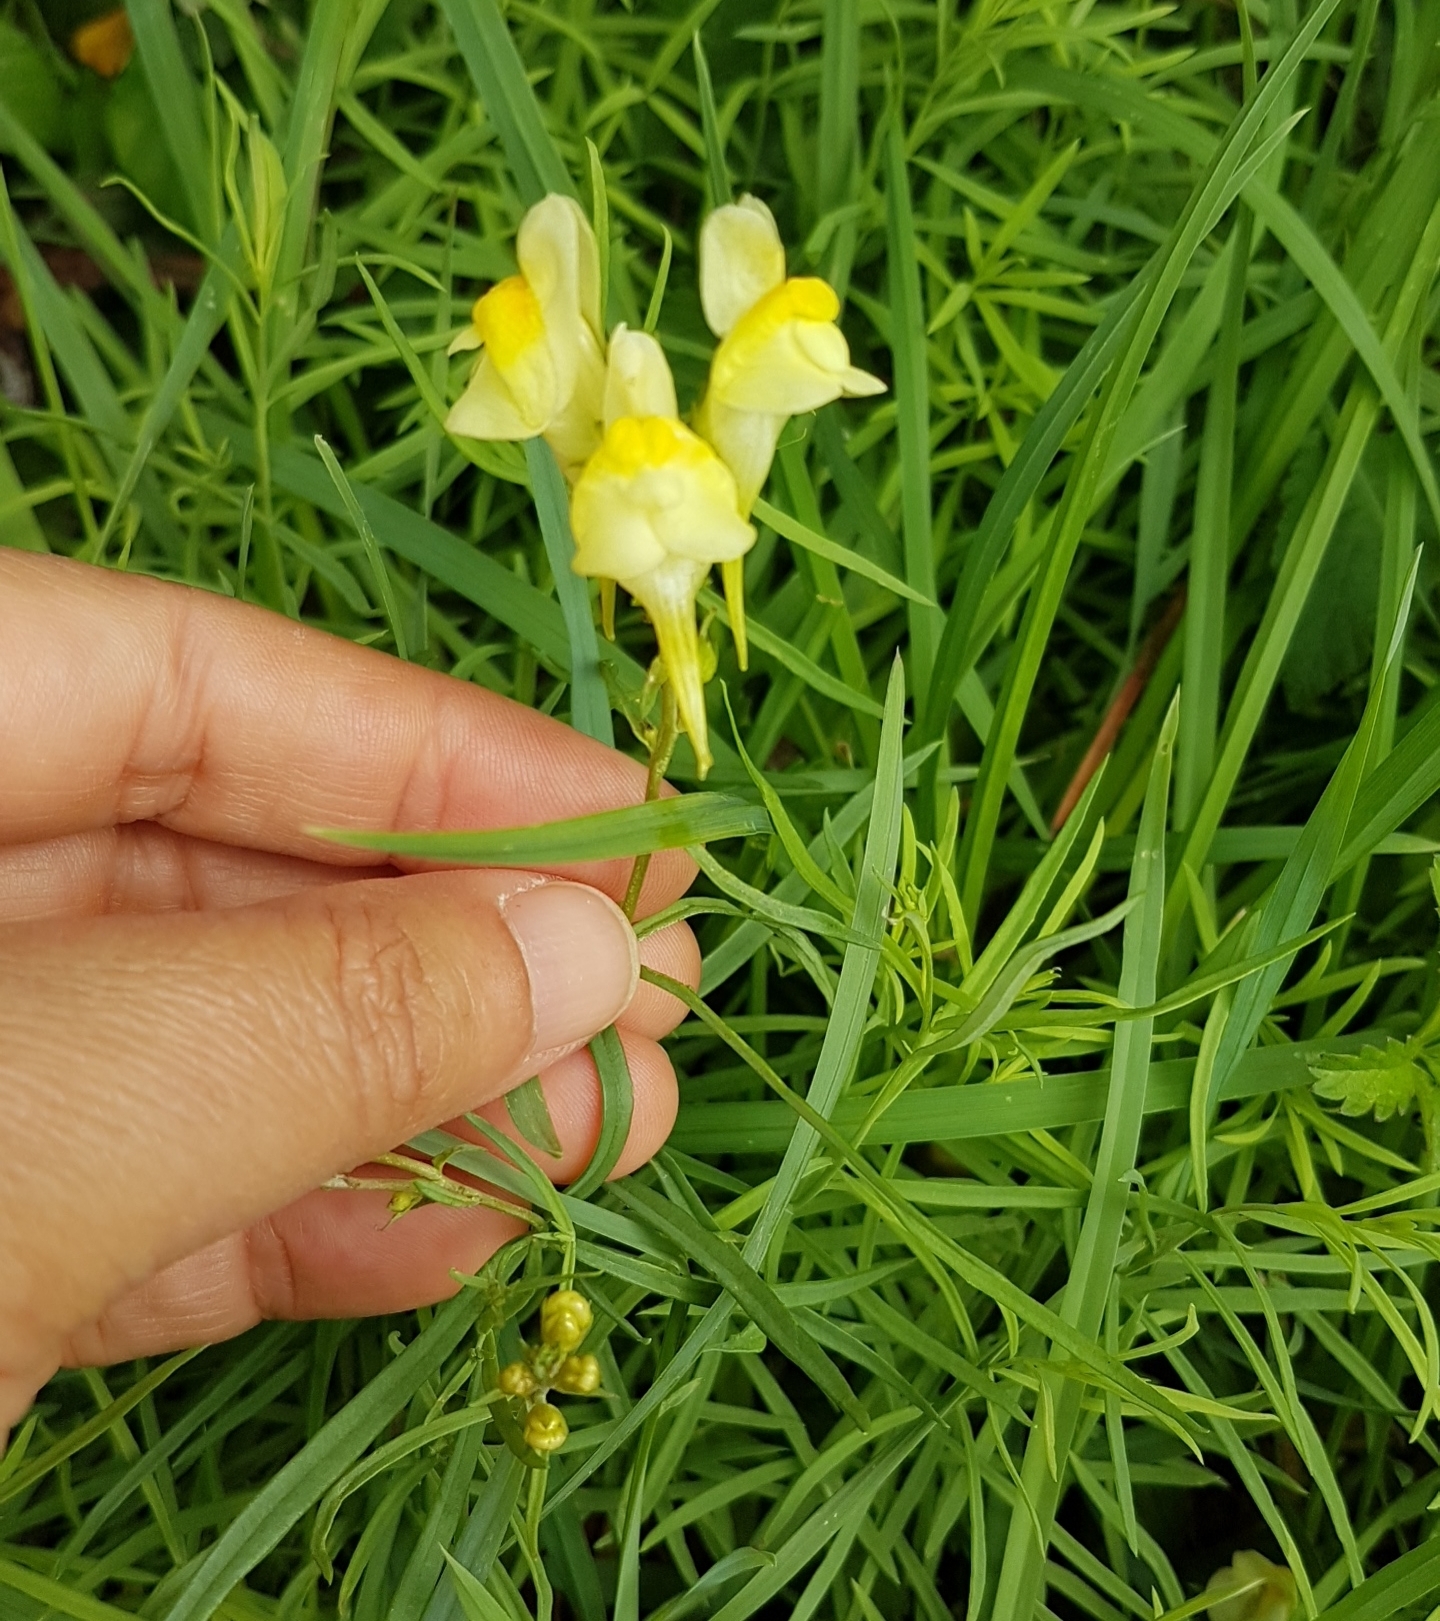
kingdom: Plantae
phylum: Tracheophyta
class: Magnoliopsida
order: Lamiales
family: Plantaginaceae
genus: Linaria
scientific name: Linaria vulgaris
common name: Butter and eggs
